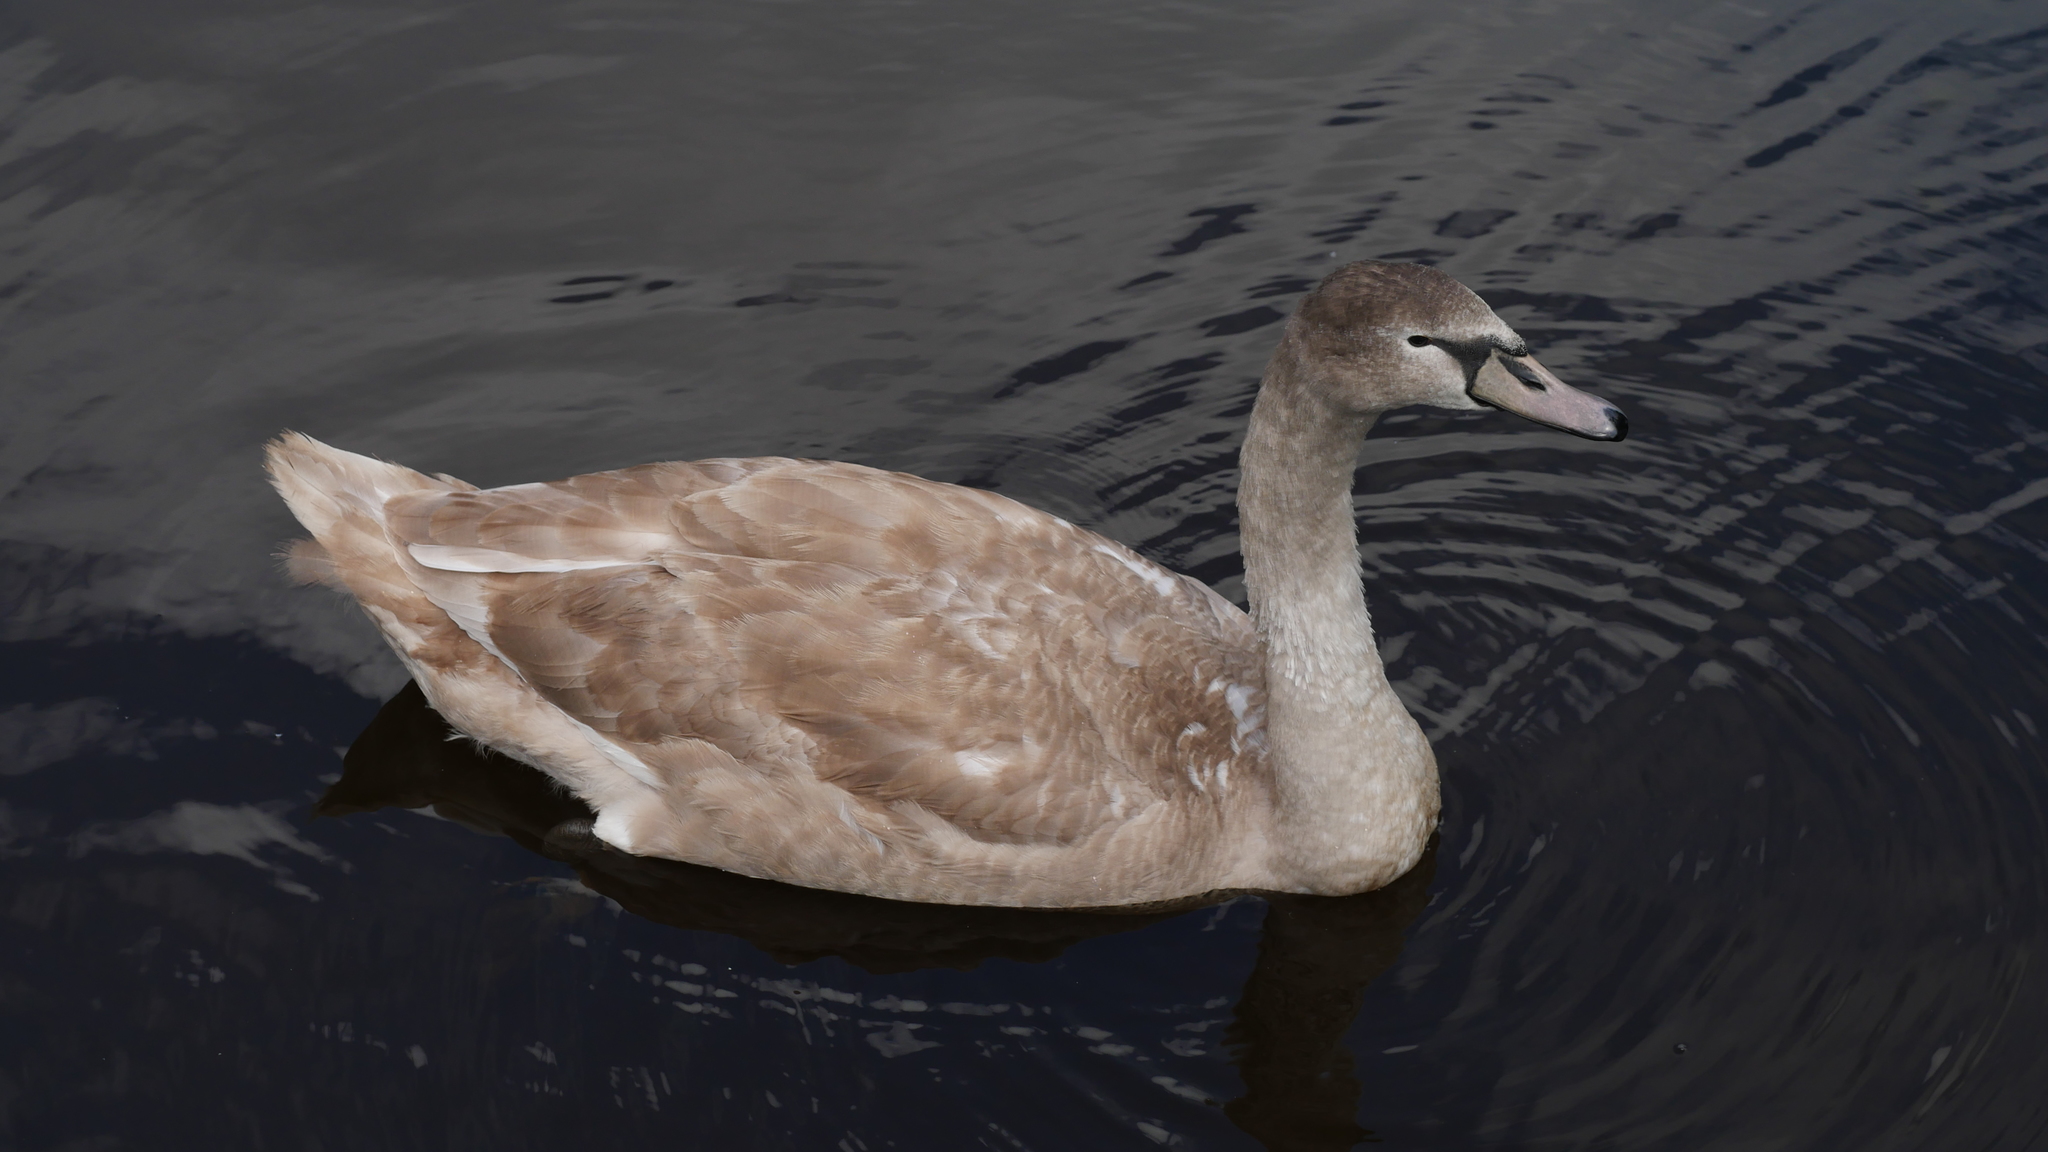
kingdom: Animalia
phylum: Chordata
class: Aves
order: Anseriformes
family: Anatidae
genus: Cygnus
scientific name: Cygnus olor
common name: Mute swan
